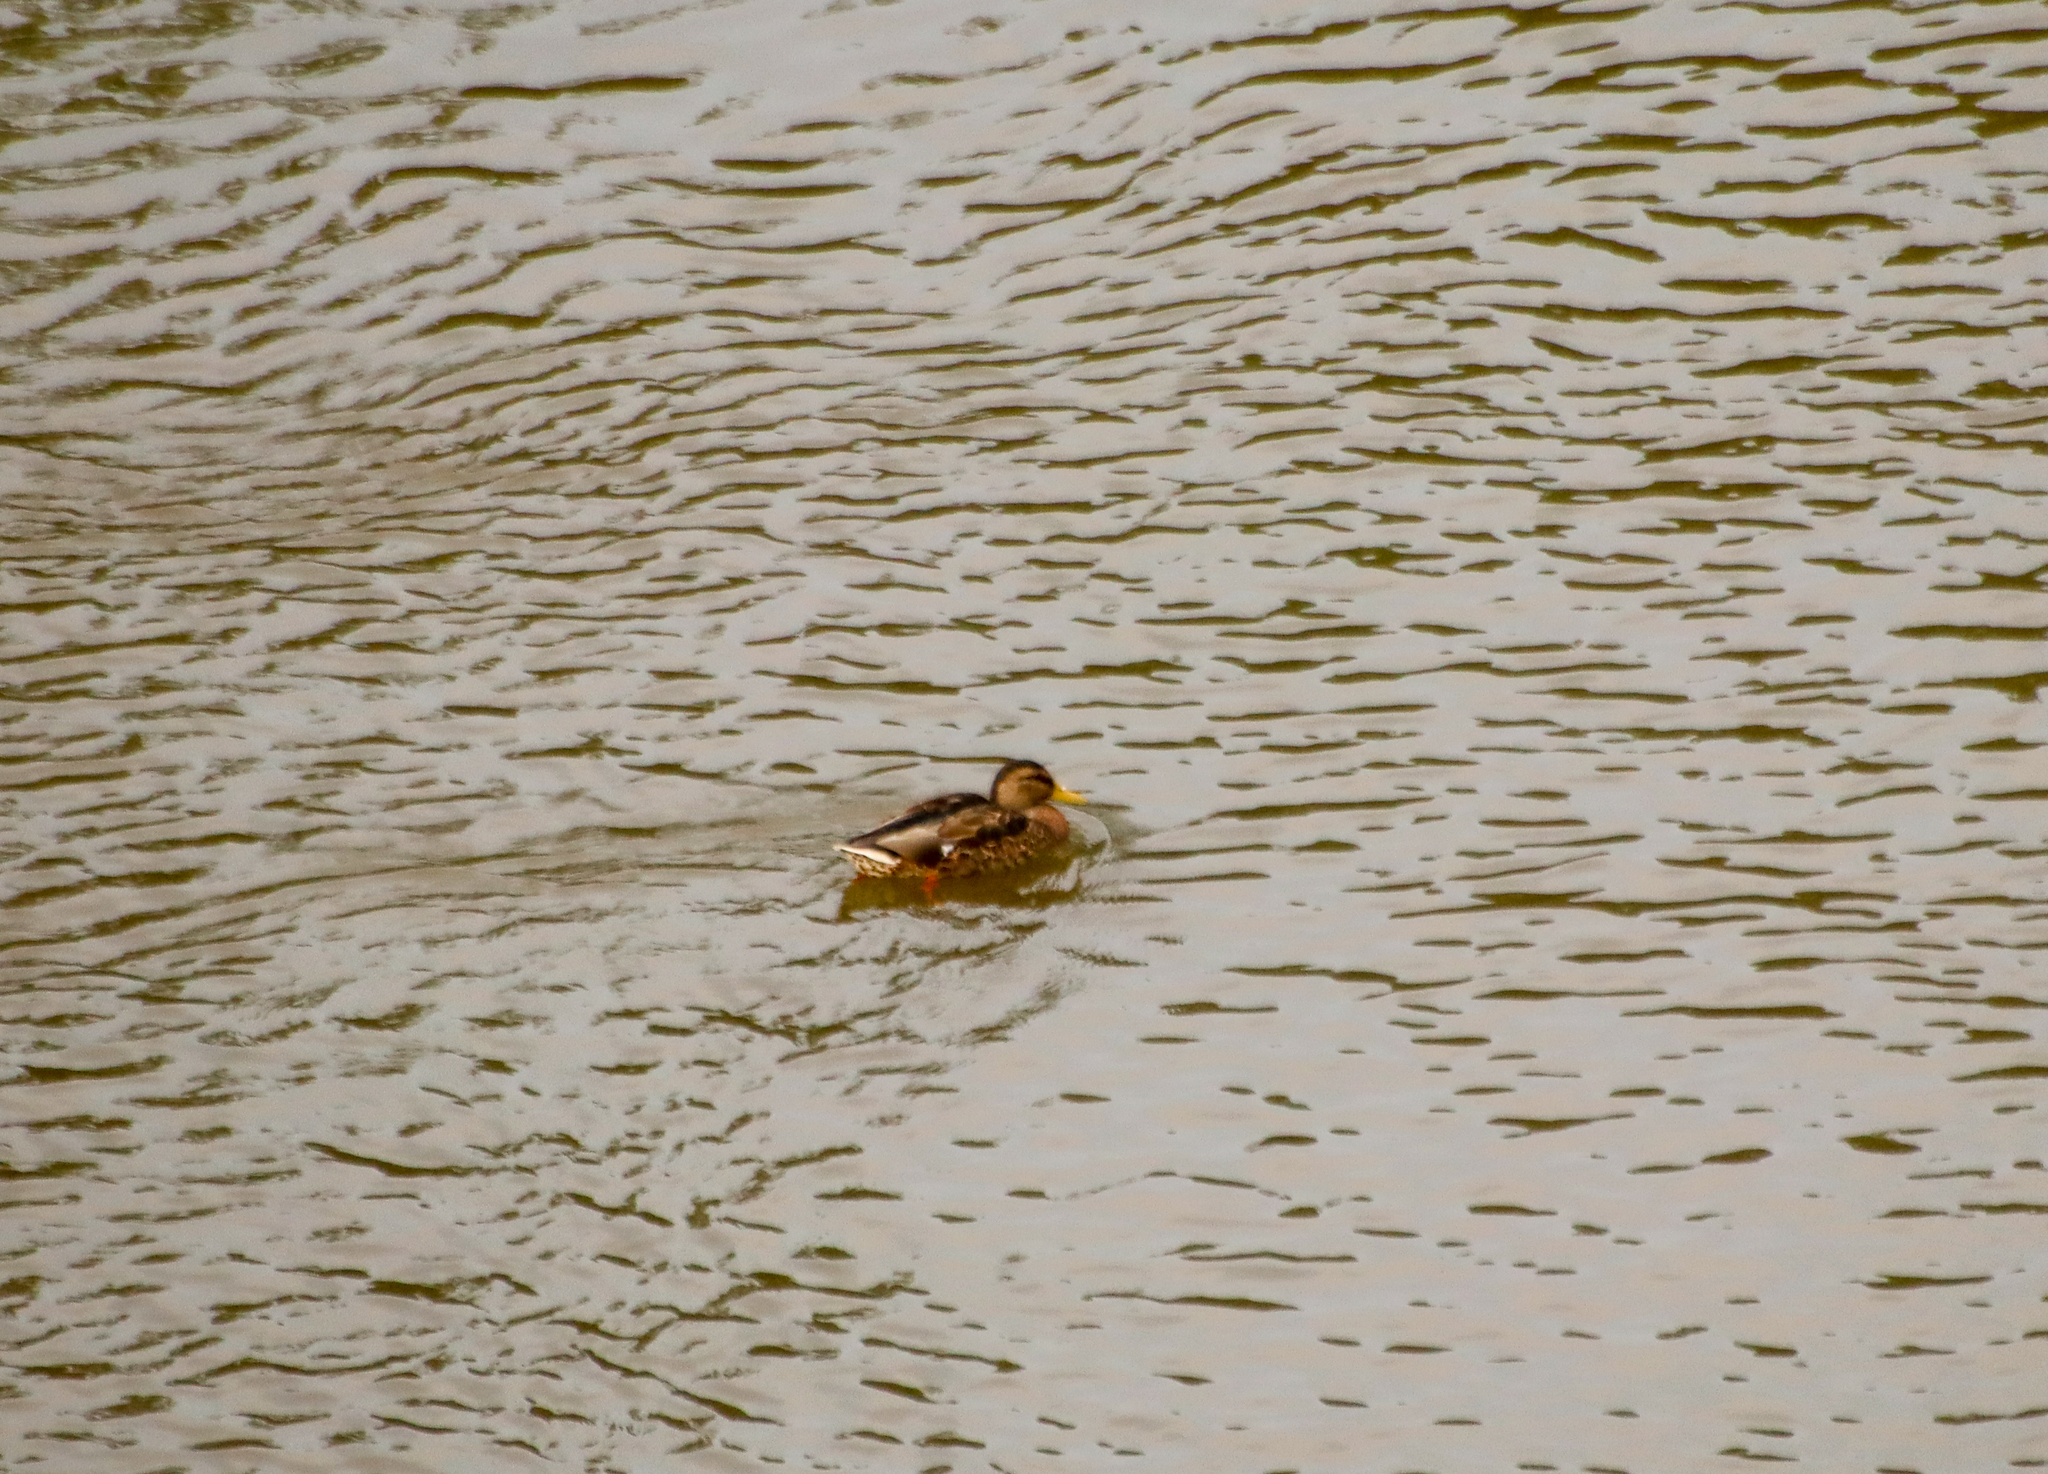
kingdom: Animalia
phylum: Chordata
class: Aves
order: Anseriformes
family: Anatidae
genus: Anas
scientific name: Anas platyrhynchos
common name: Mallard
